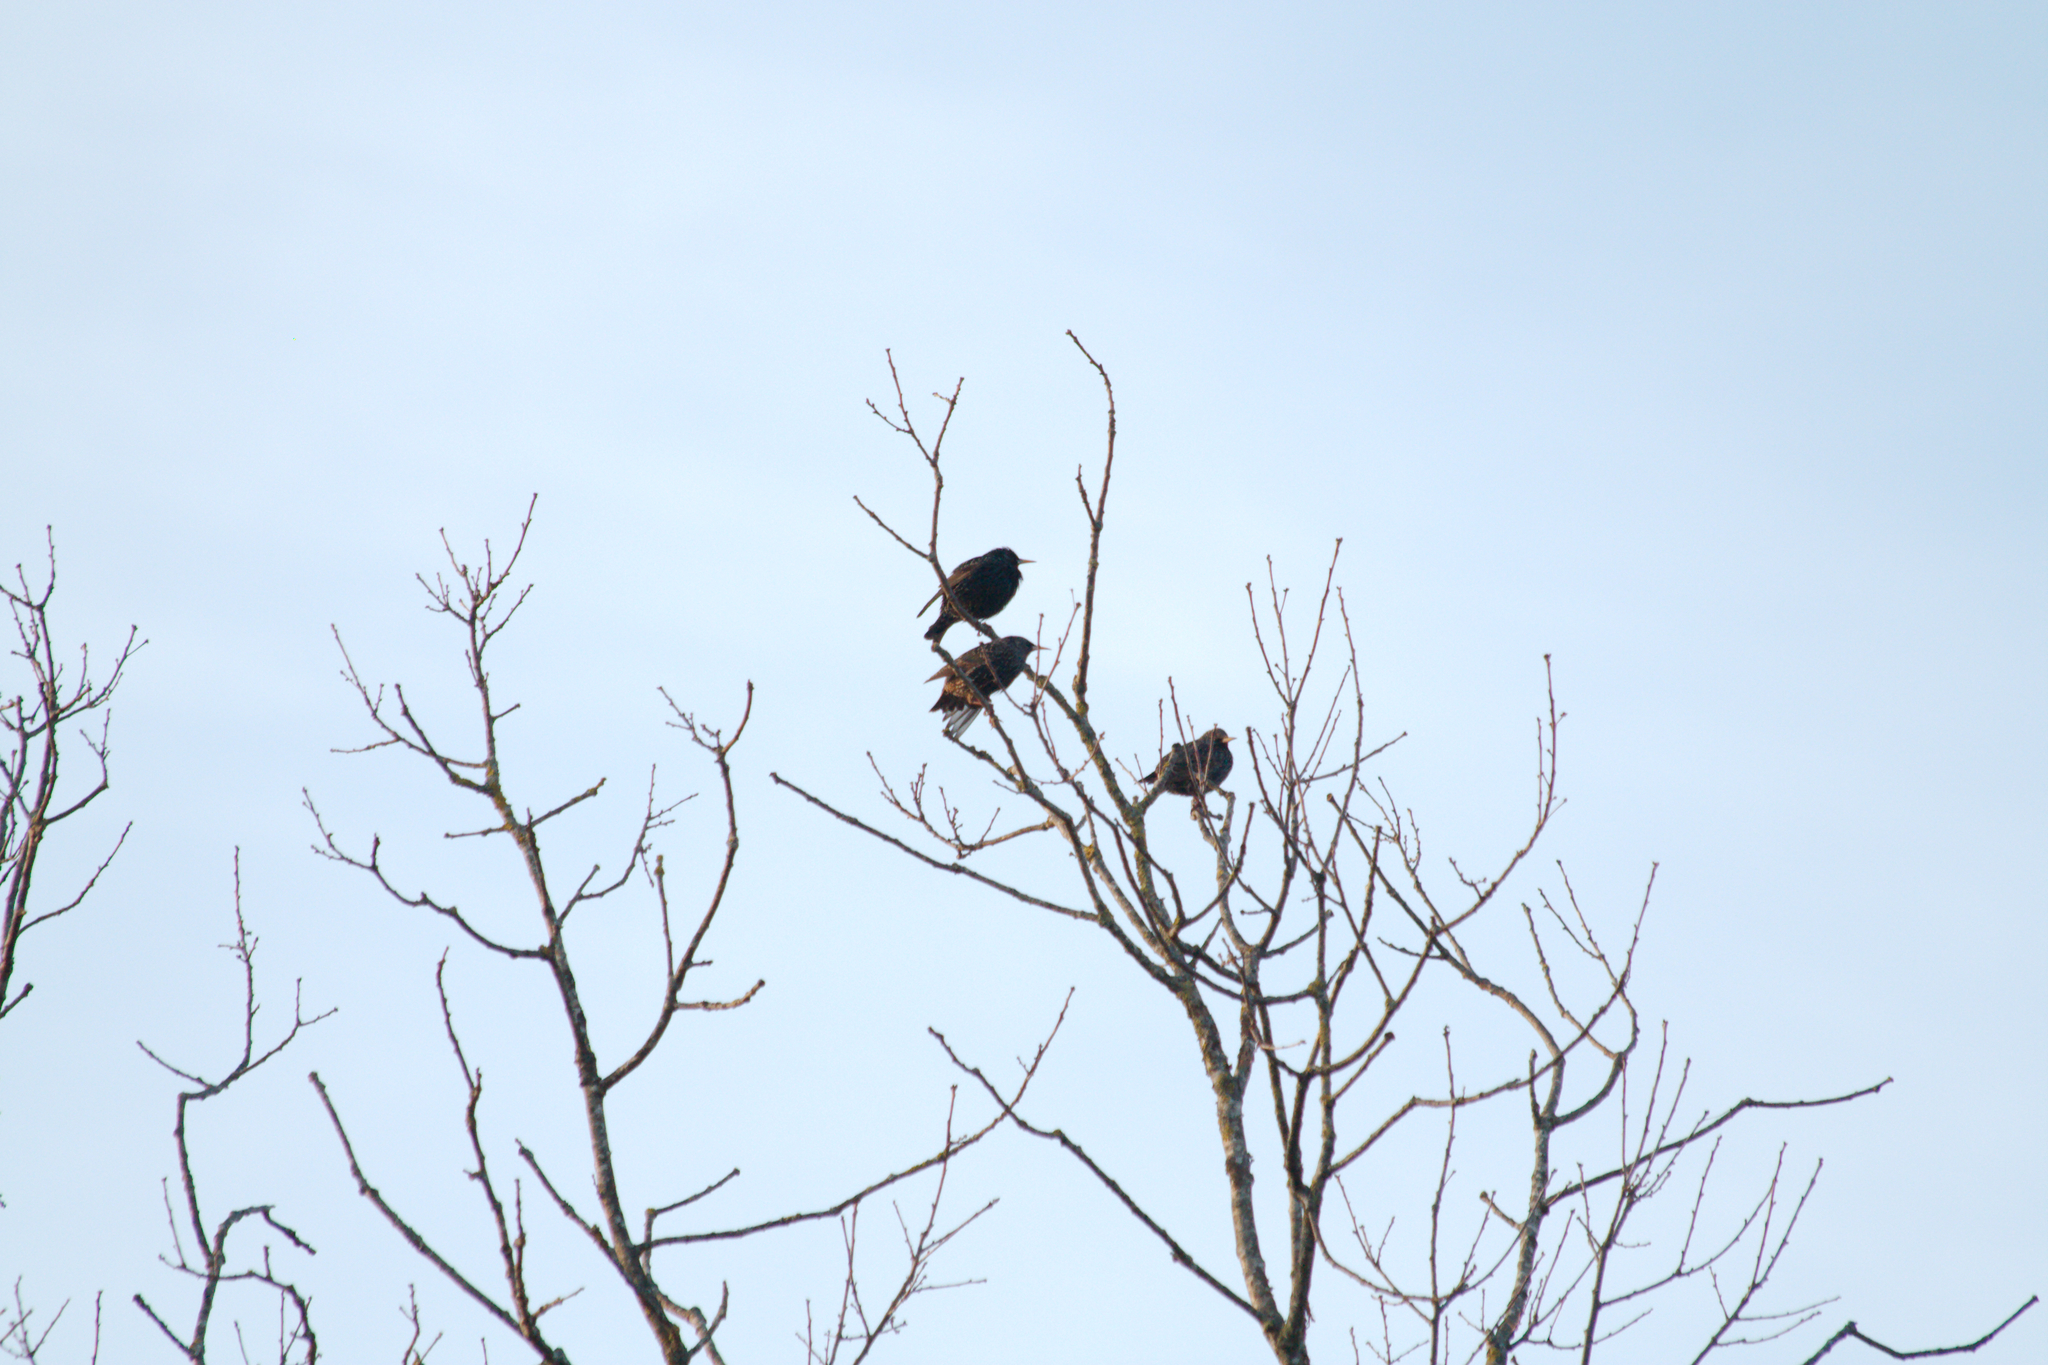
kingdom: Animalia
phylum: Chordata
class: Aves
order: Passeriformes
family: Sturnidae
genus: Sturnus
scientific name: Sturnus vulgaris
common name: Common starling
